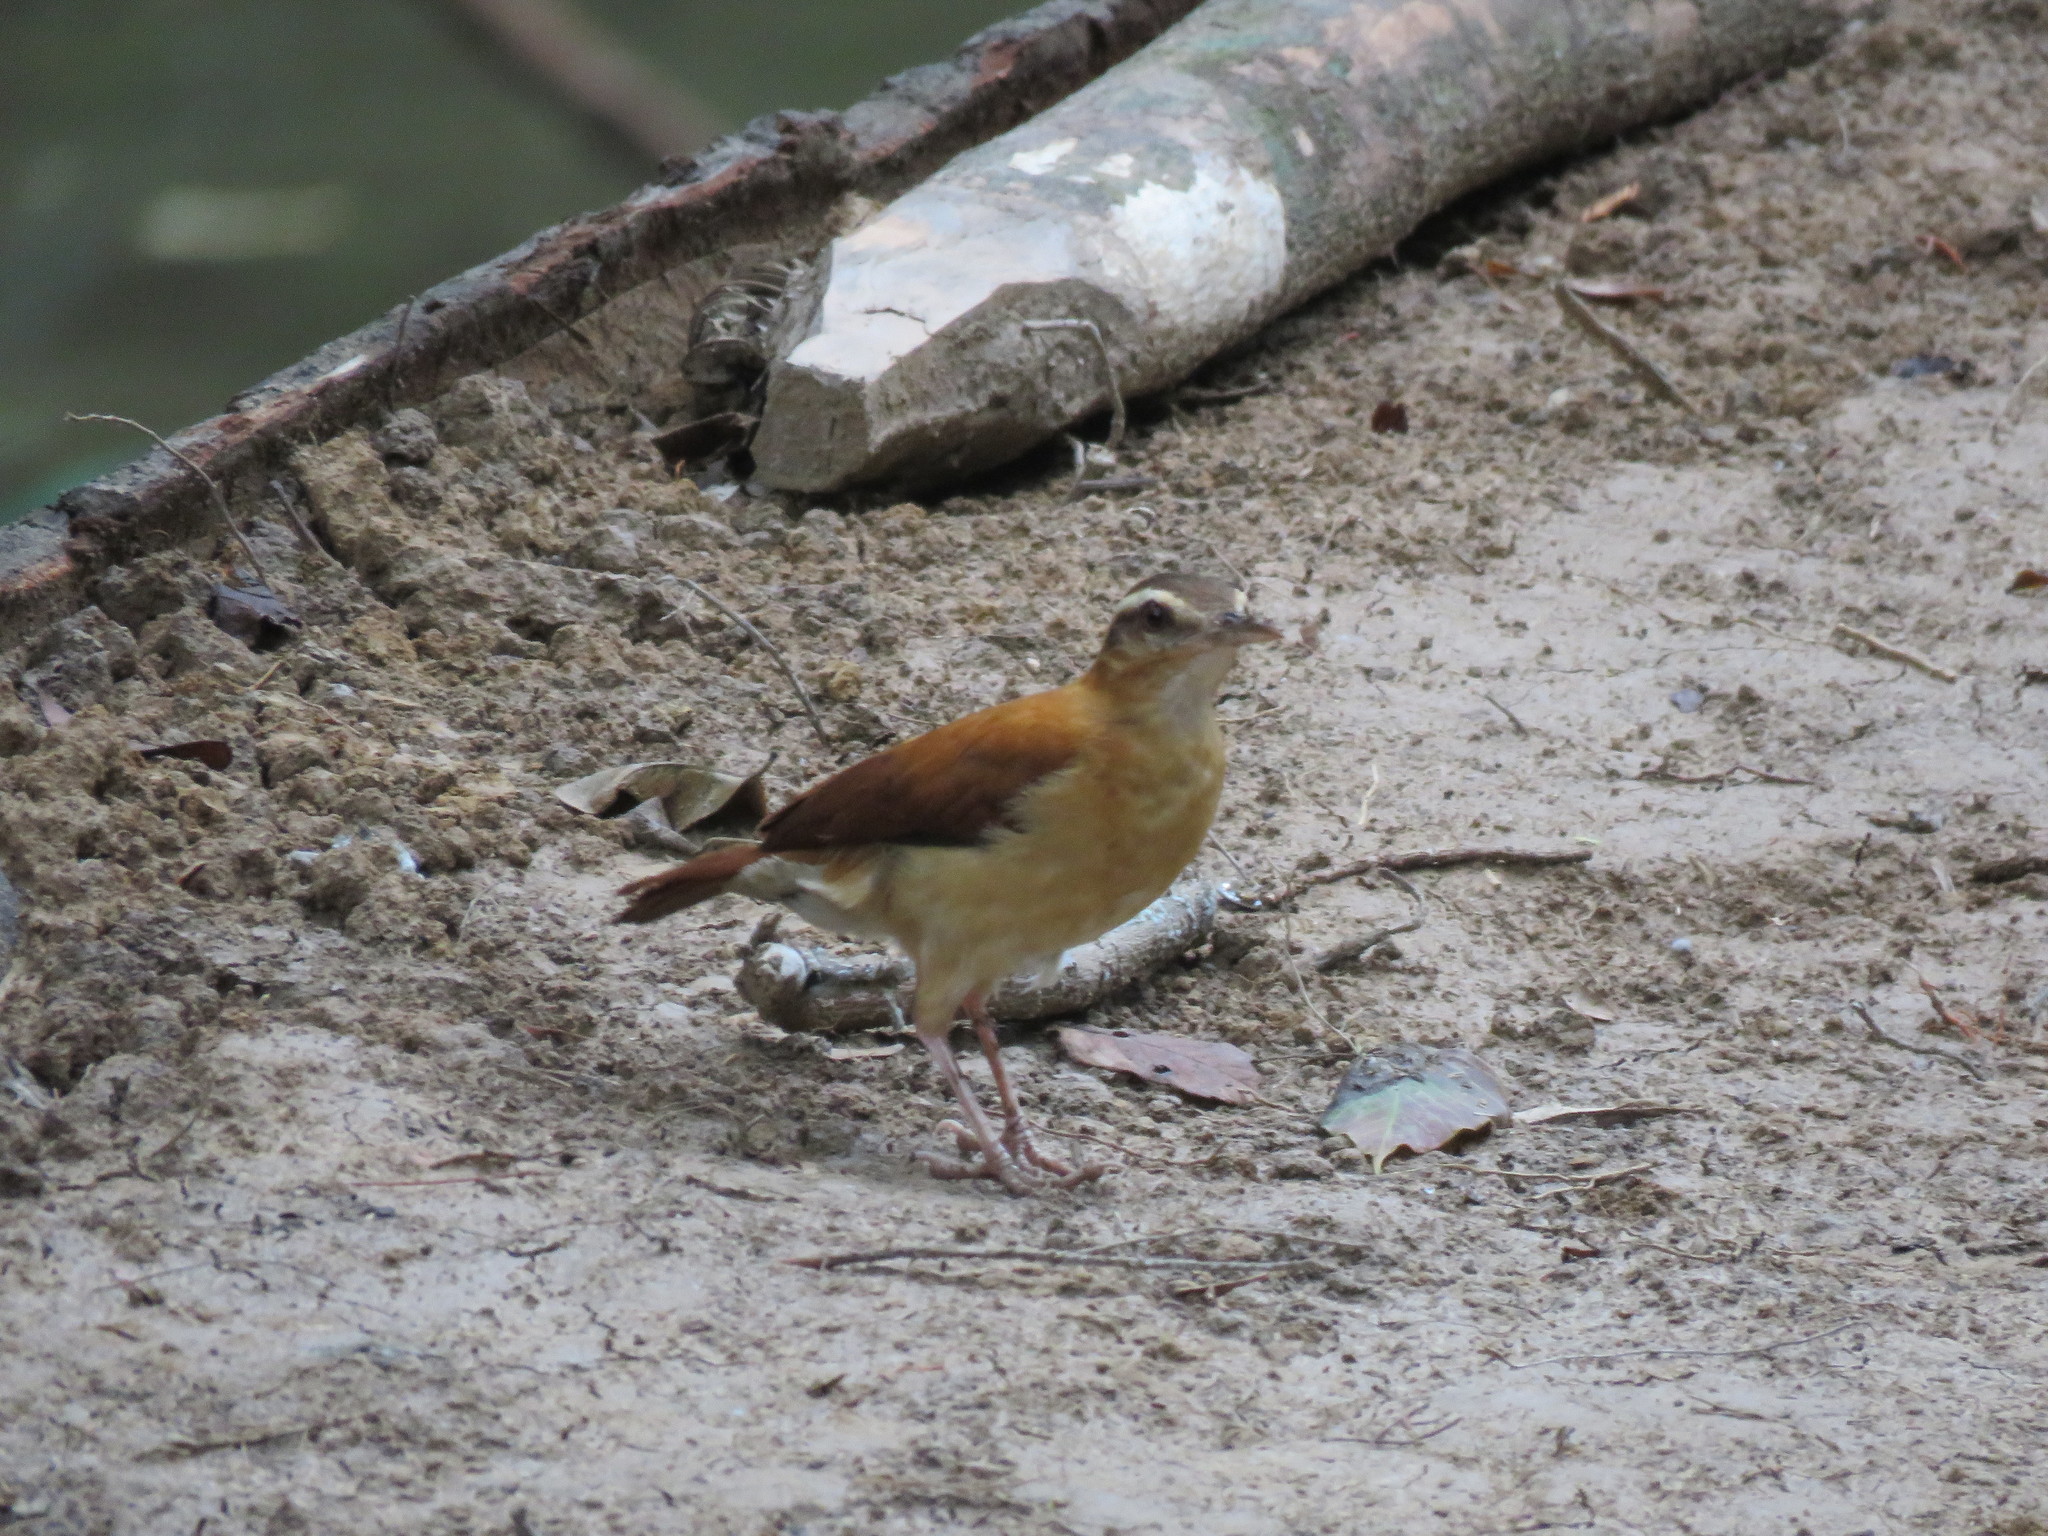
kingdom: Animalia
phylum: Chordata
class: Aves
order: Passeriformes
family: Furnariidae
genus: Furnarius
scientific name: Furnarius leucopus
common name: Pale-legged hornero
